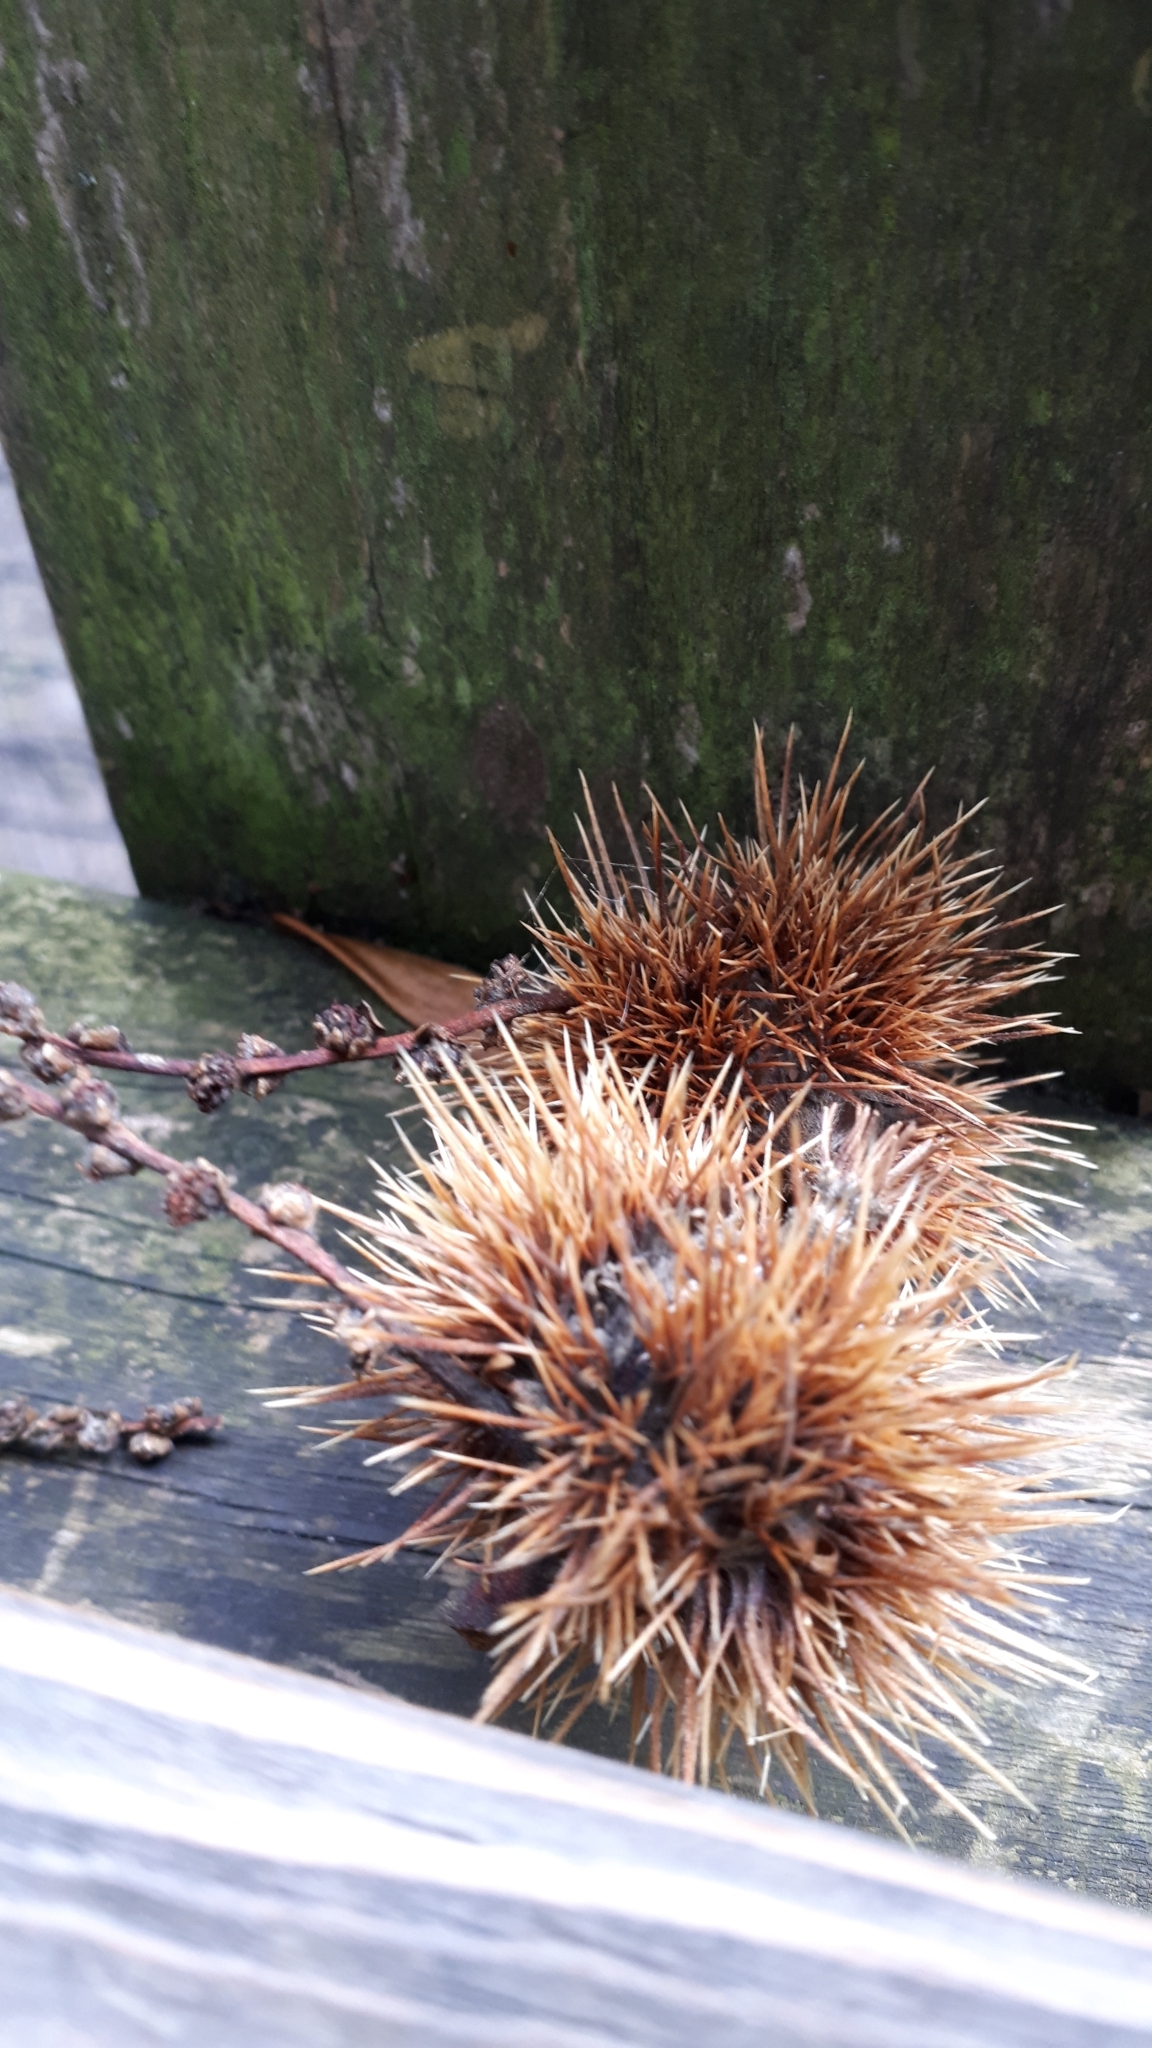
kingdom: Plantae
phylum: Tracheophyta
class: Magnoliopsida
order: Fagales
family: Fagaceae
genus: Castanea
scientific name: Castanea sativa
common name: Sweet chestnut
